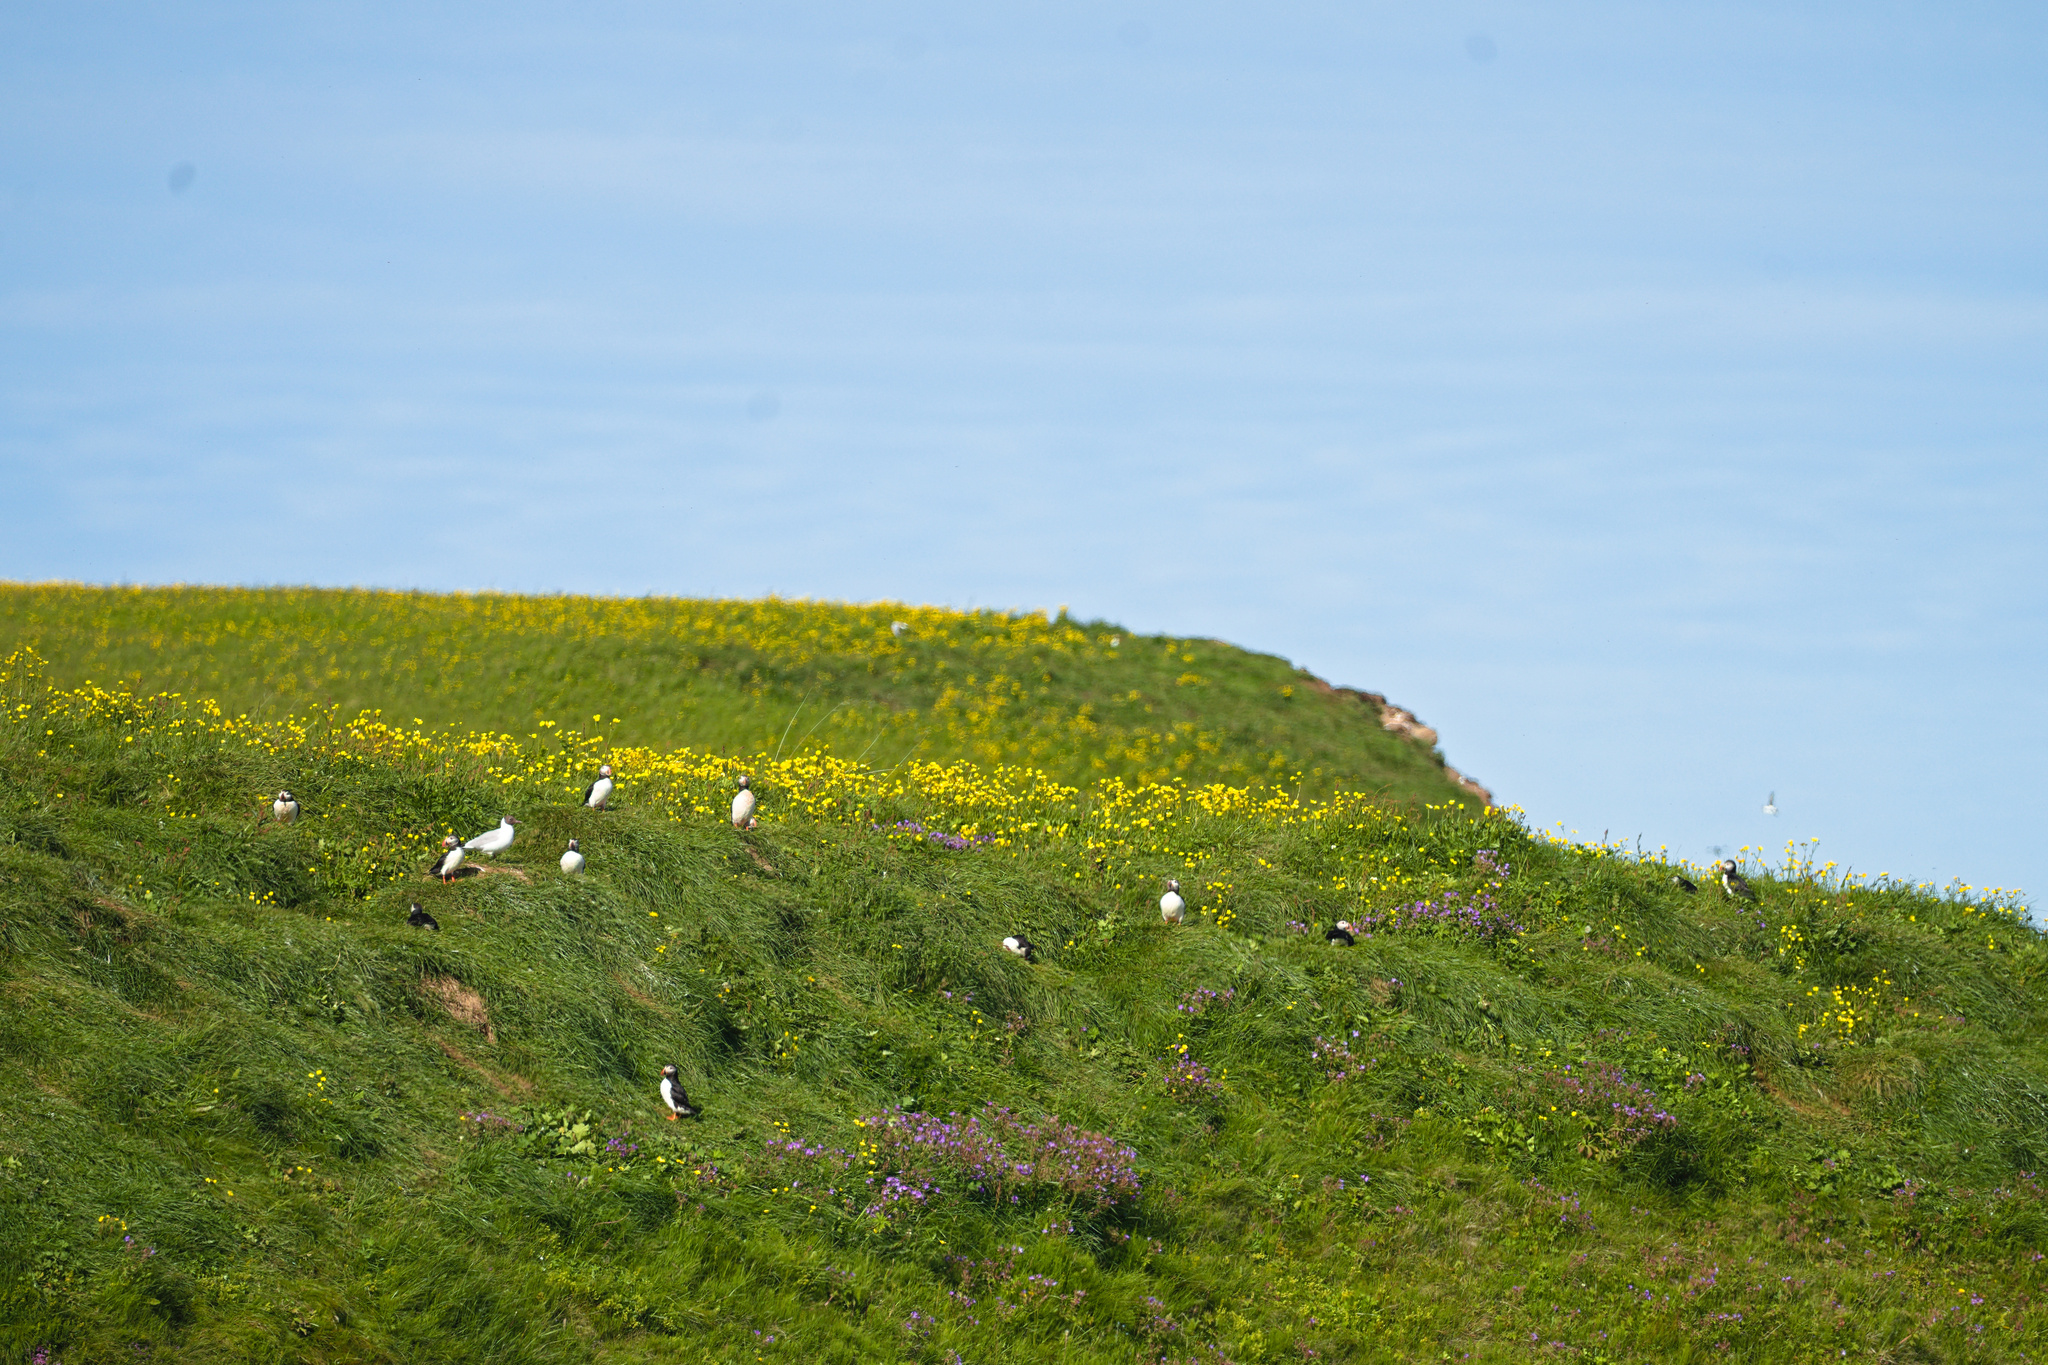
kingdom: Animalia
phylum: Chordata
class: Aves
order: Charadriiformes
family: Laridae
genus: Chroicocephalus
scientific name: Chroicocephalus ridibundus
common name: Black-headed gull
